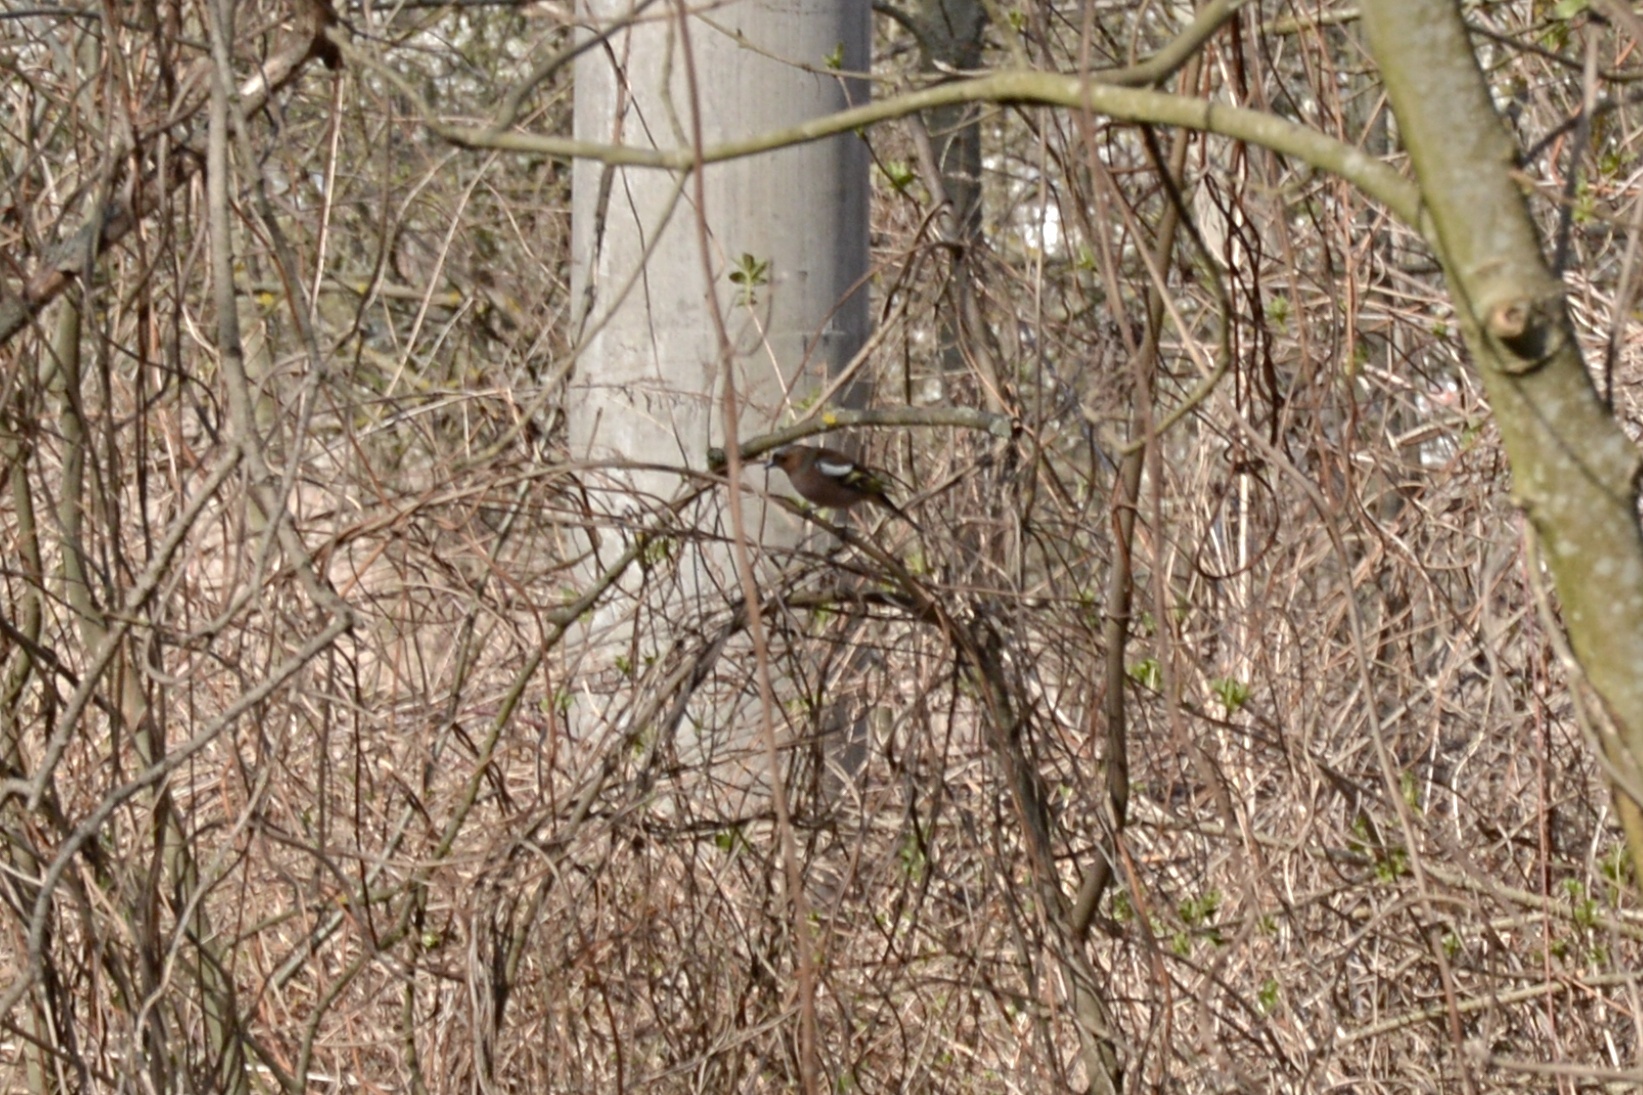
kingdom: Animalia
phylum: Chordata
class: Aves
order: Passeriformes
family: Fringillidae
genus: Fringilla
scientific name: Fringilla coelebs
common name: Common chaffinch
